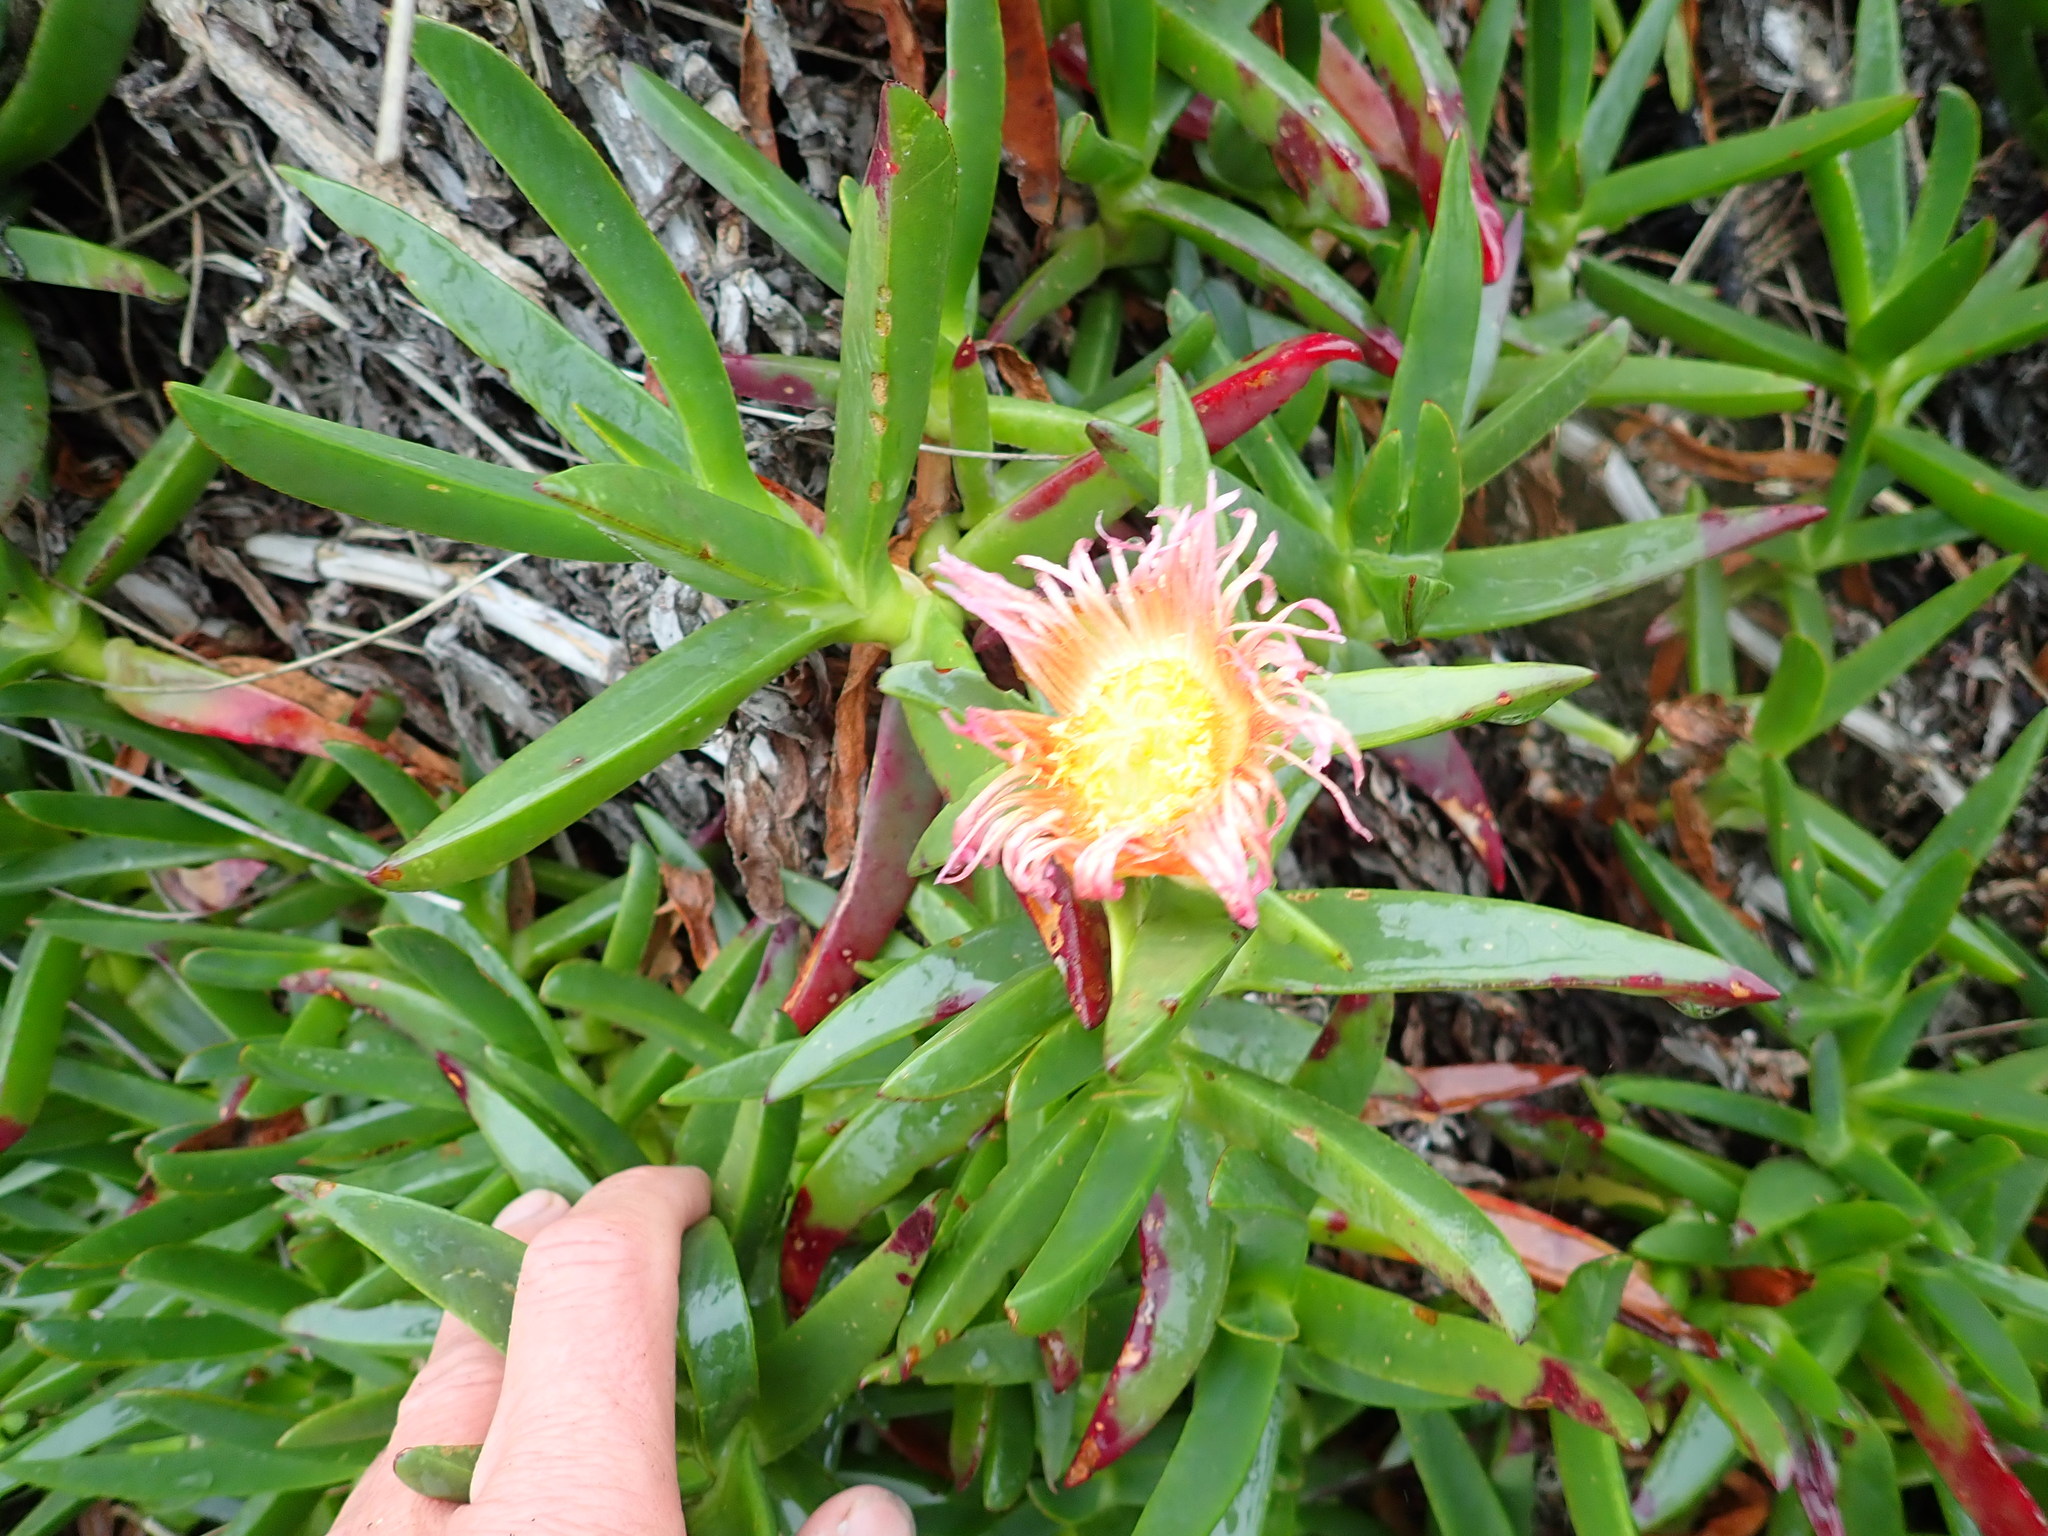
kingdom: Plantae
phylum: Tracheophyta
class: Magnoliopsida
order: Caryophyllales
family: Aizoaceae
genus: Carpobrotus
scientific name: Carpobrotus edulis
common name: Hottentot-fig
